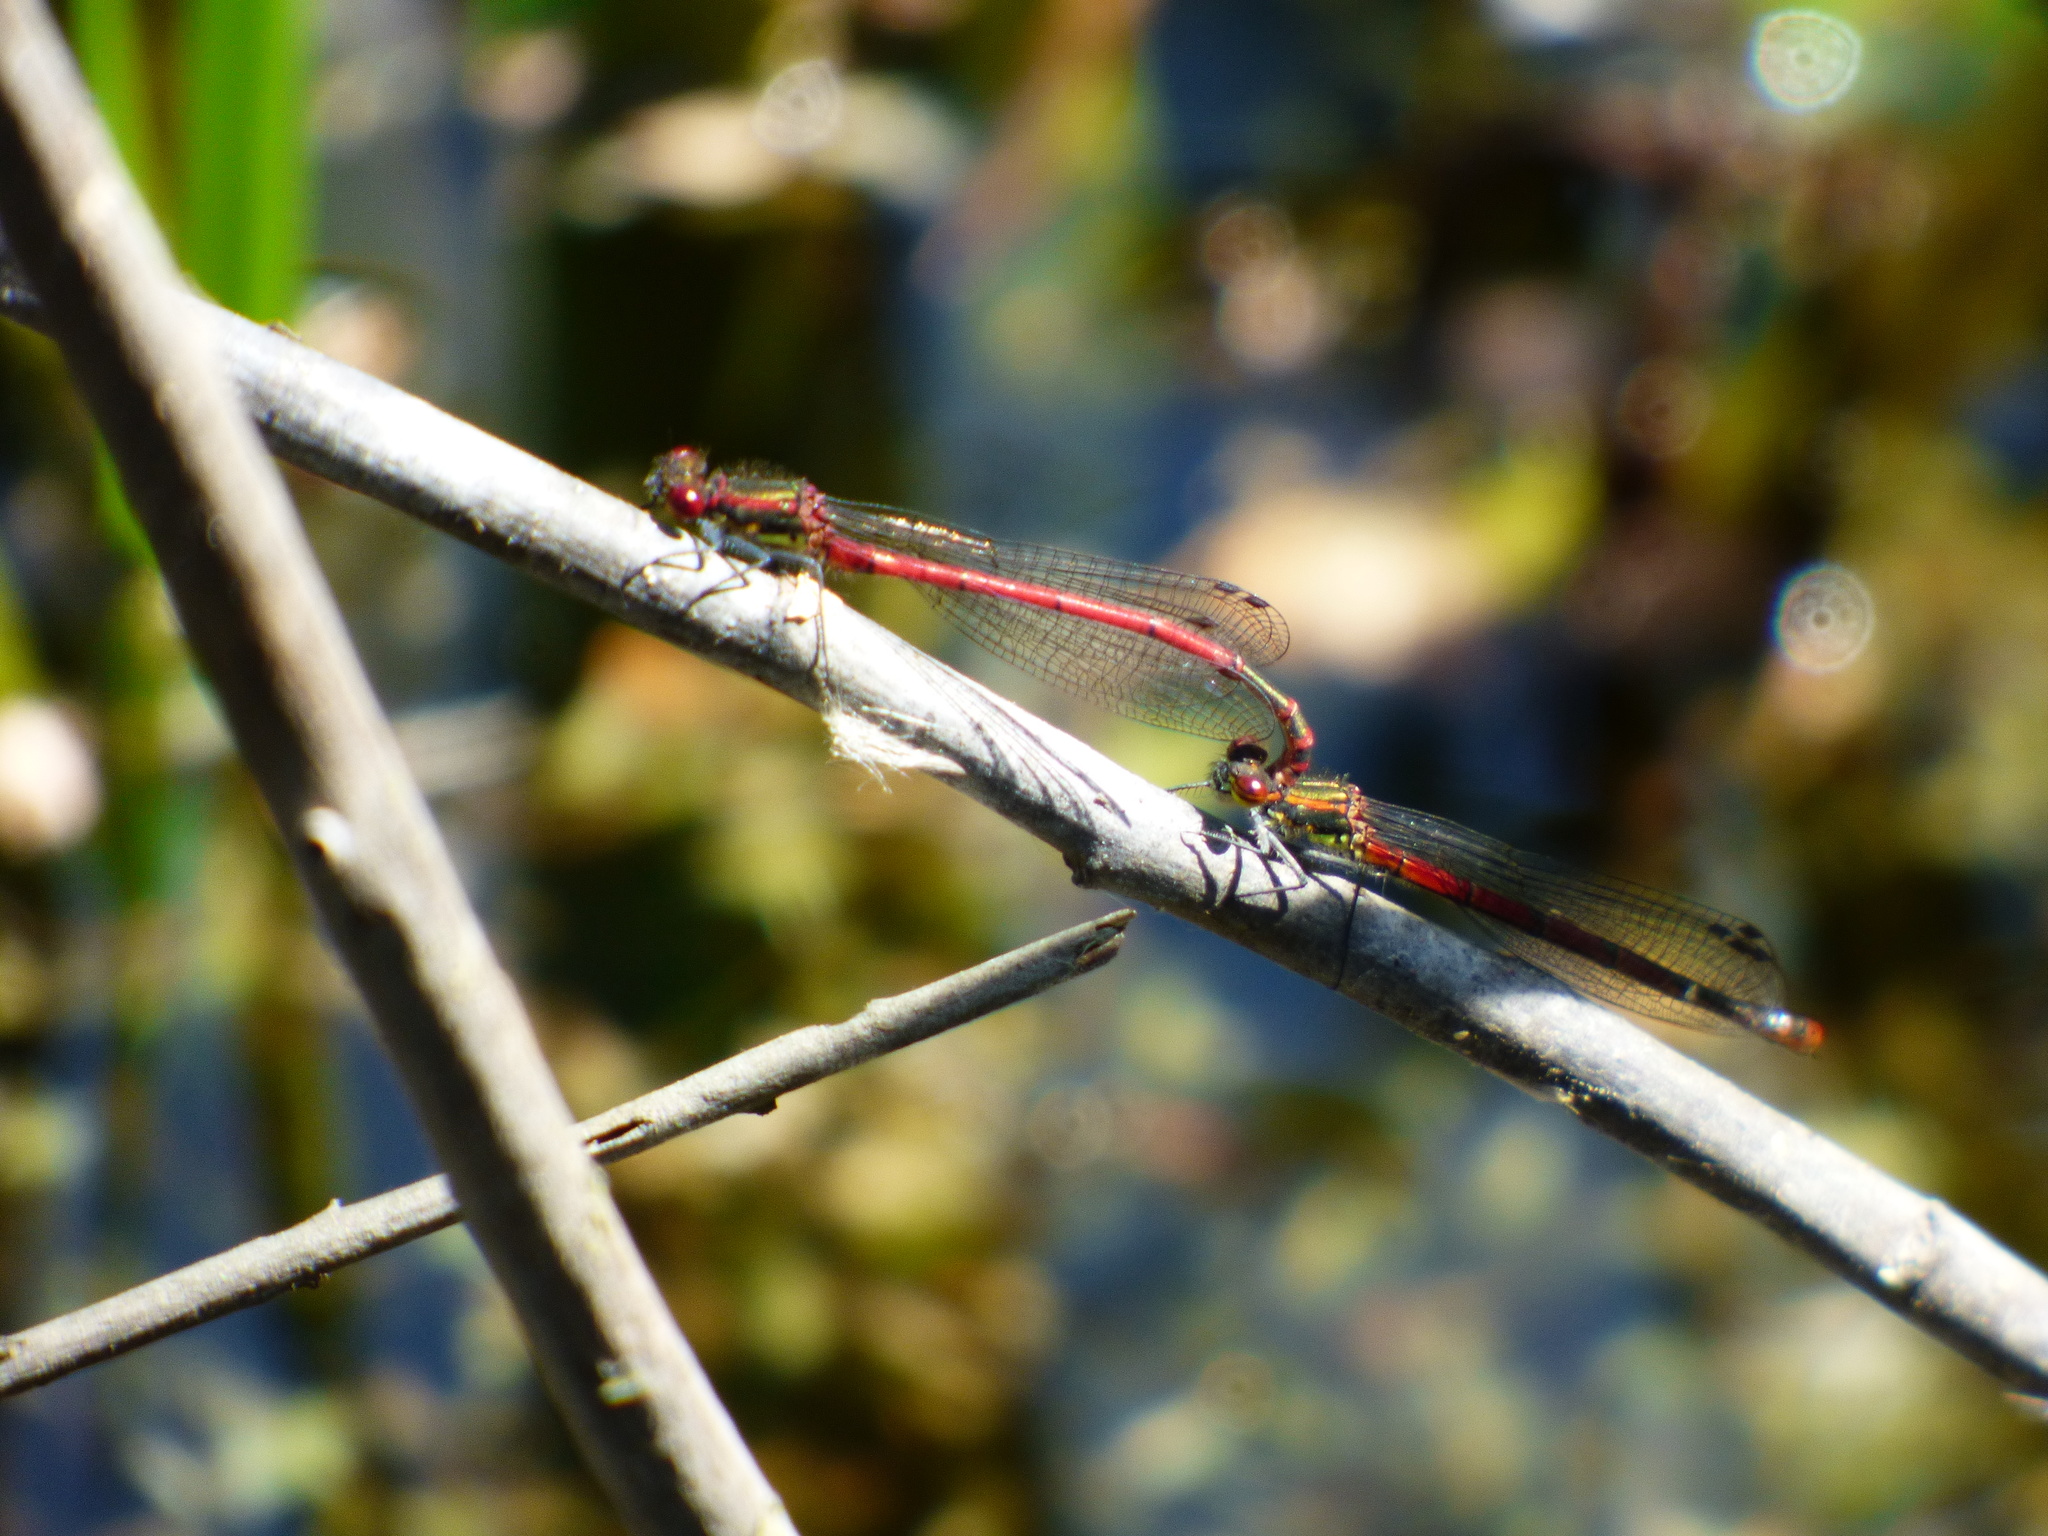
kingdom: Animalia
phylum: Arthropoda
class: Insecta
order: Odonata
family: Coenagrionidae
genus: Pyrrhosoma
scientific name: Pyrrhosoma nymphula
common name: Large red damsel
